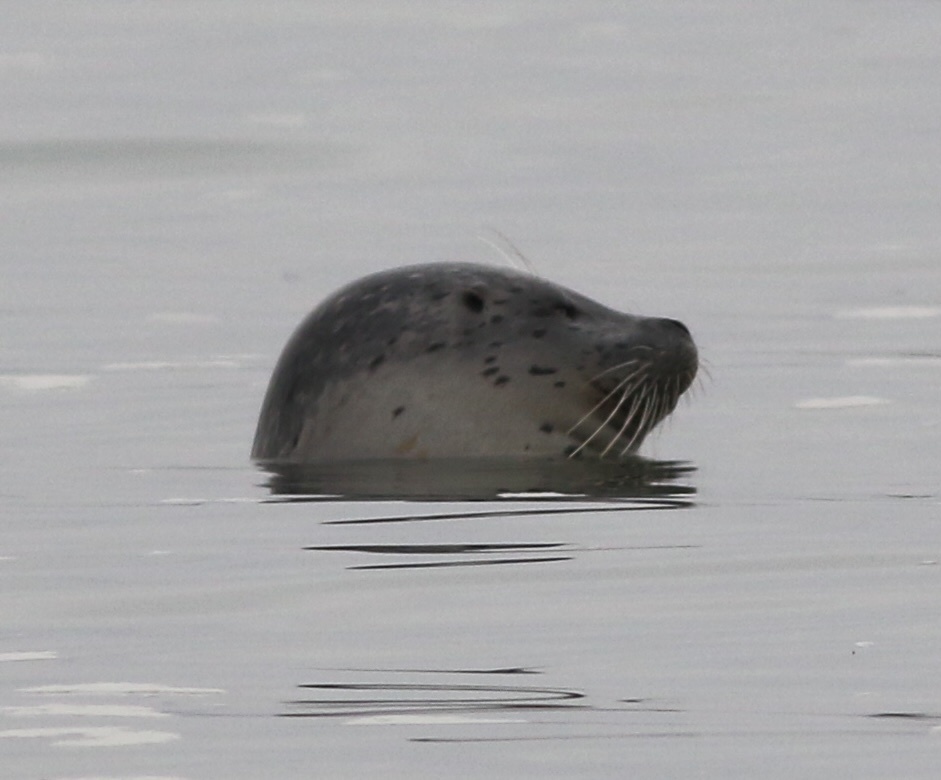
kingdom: Animalia
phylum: Chordata
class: Mammalia
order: Carnivora
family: Phocidae
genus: Phoca
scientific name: Phoca vitulina
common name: Harbor seal
